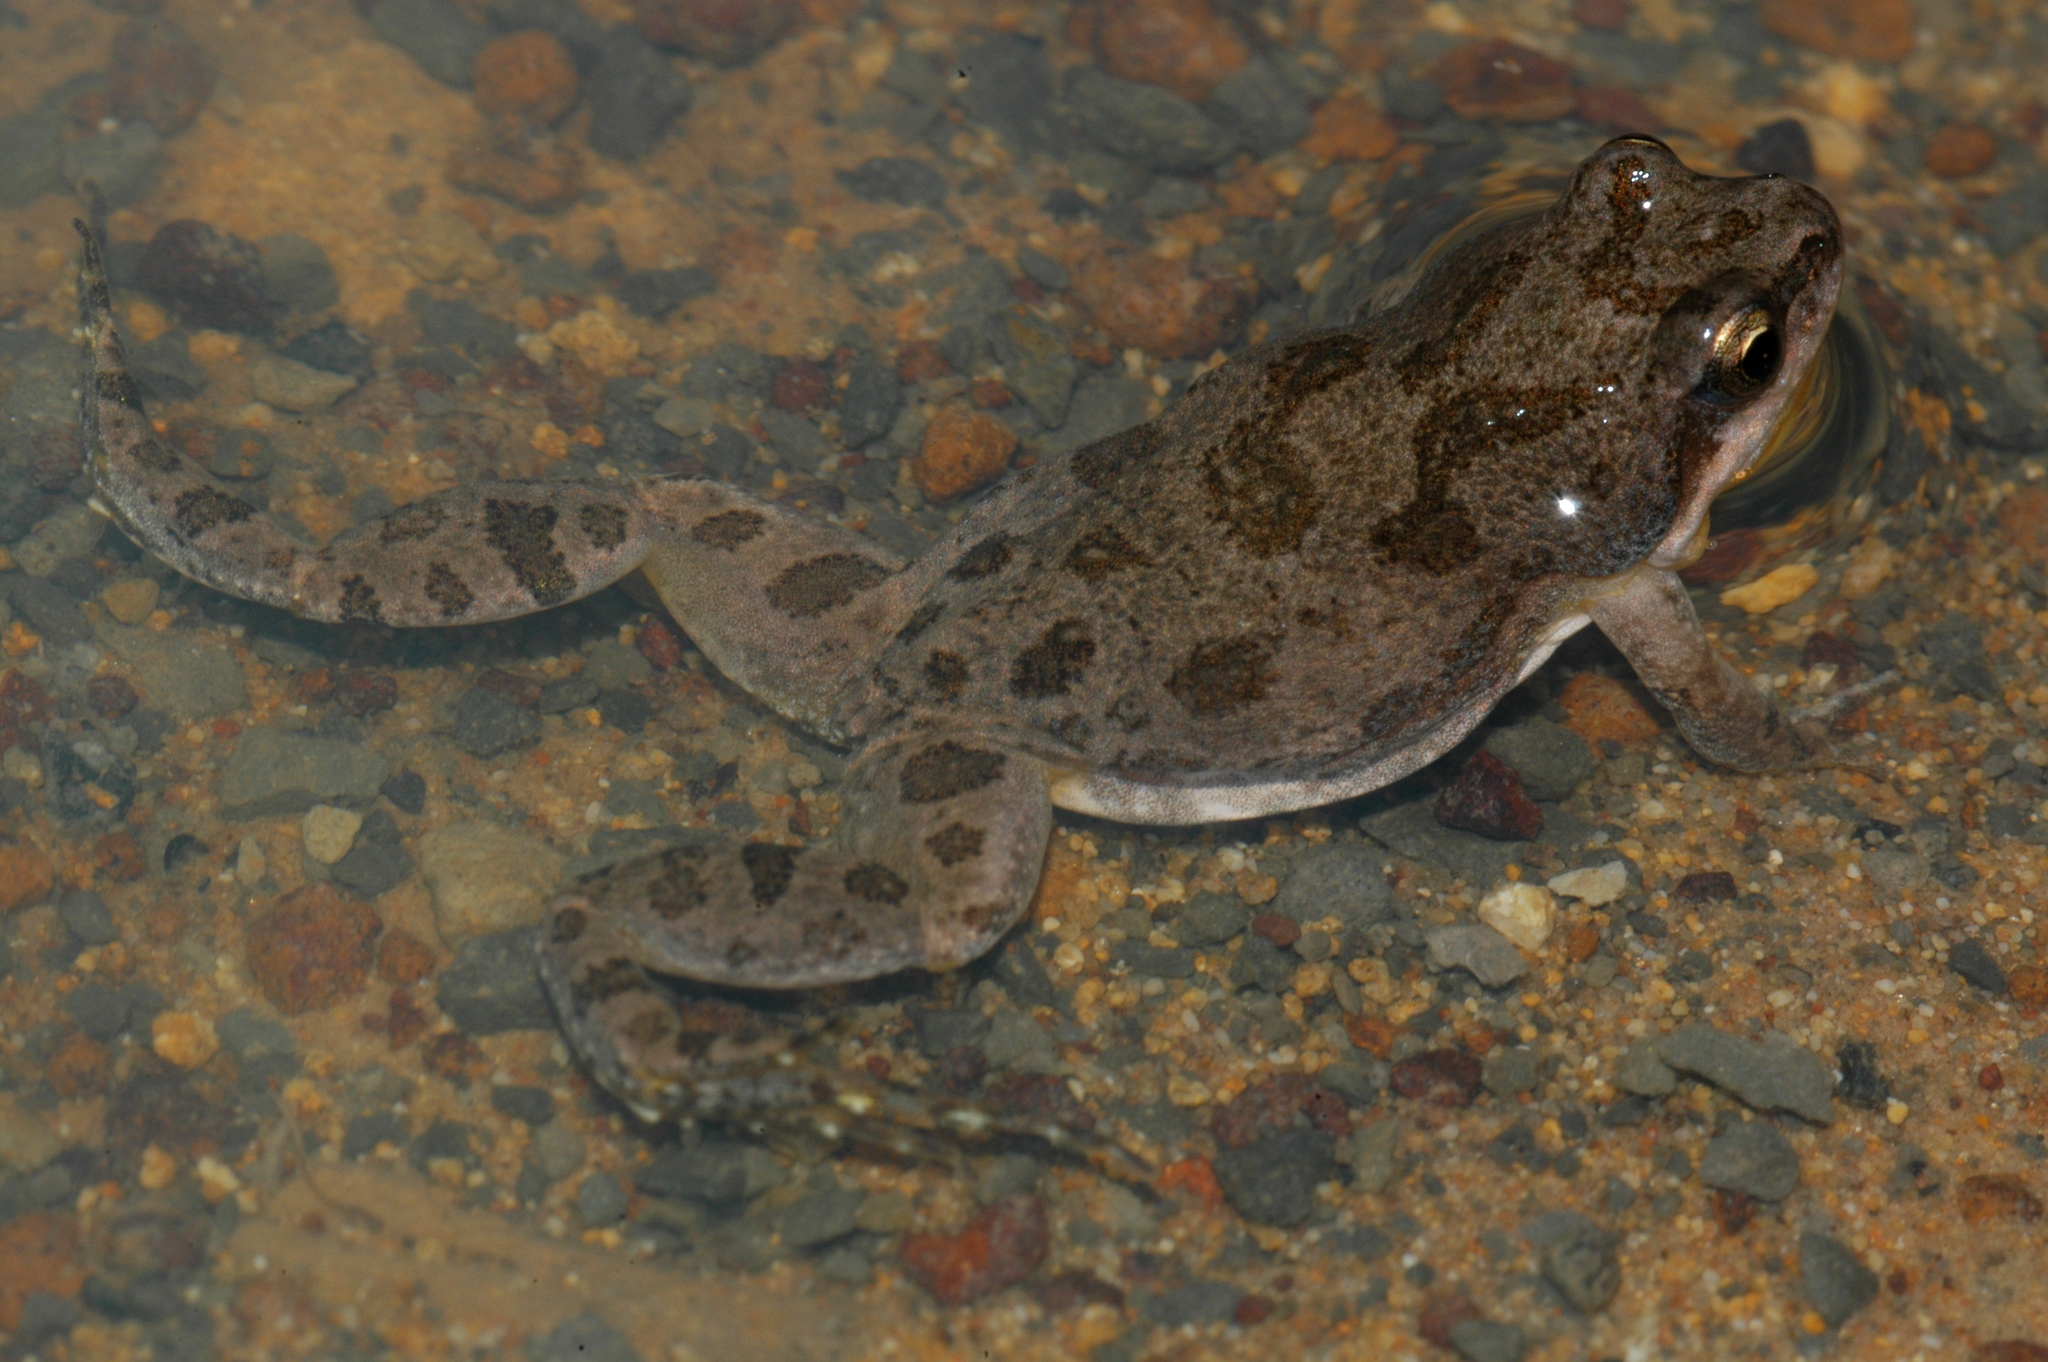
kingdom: Animalia
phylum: Chordata
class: Amphibia
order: Anura
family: Pyxicephalidae
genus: Cacosternum
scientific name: Cacosternum boettgeri
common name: Boettger's frog
